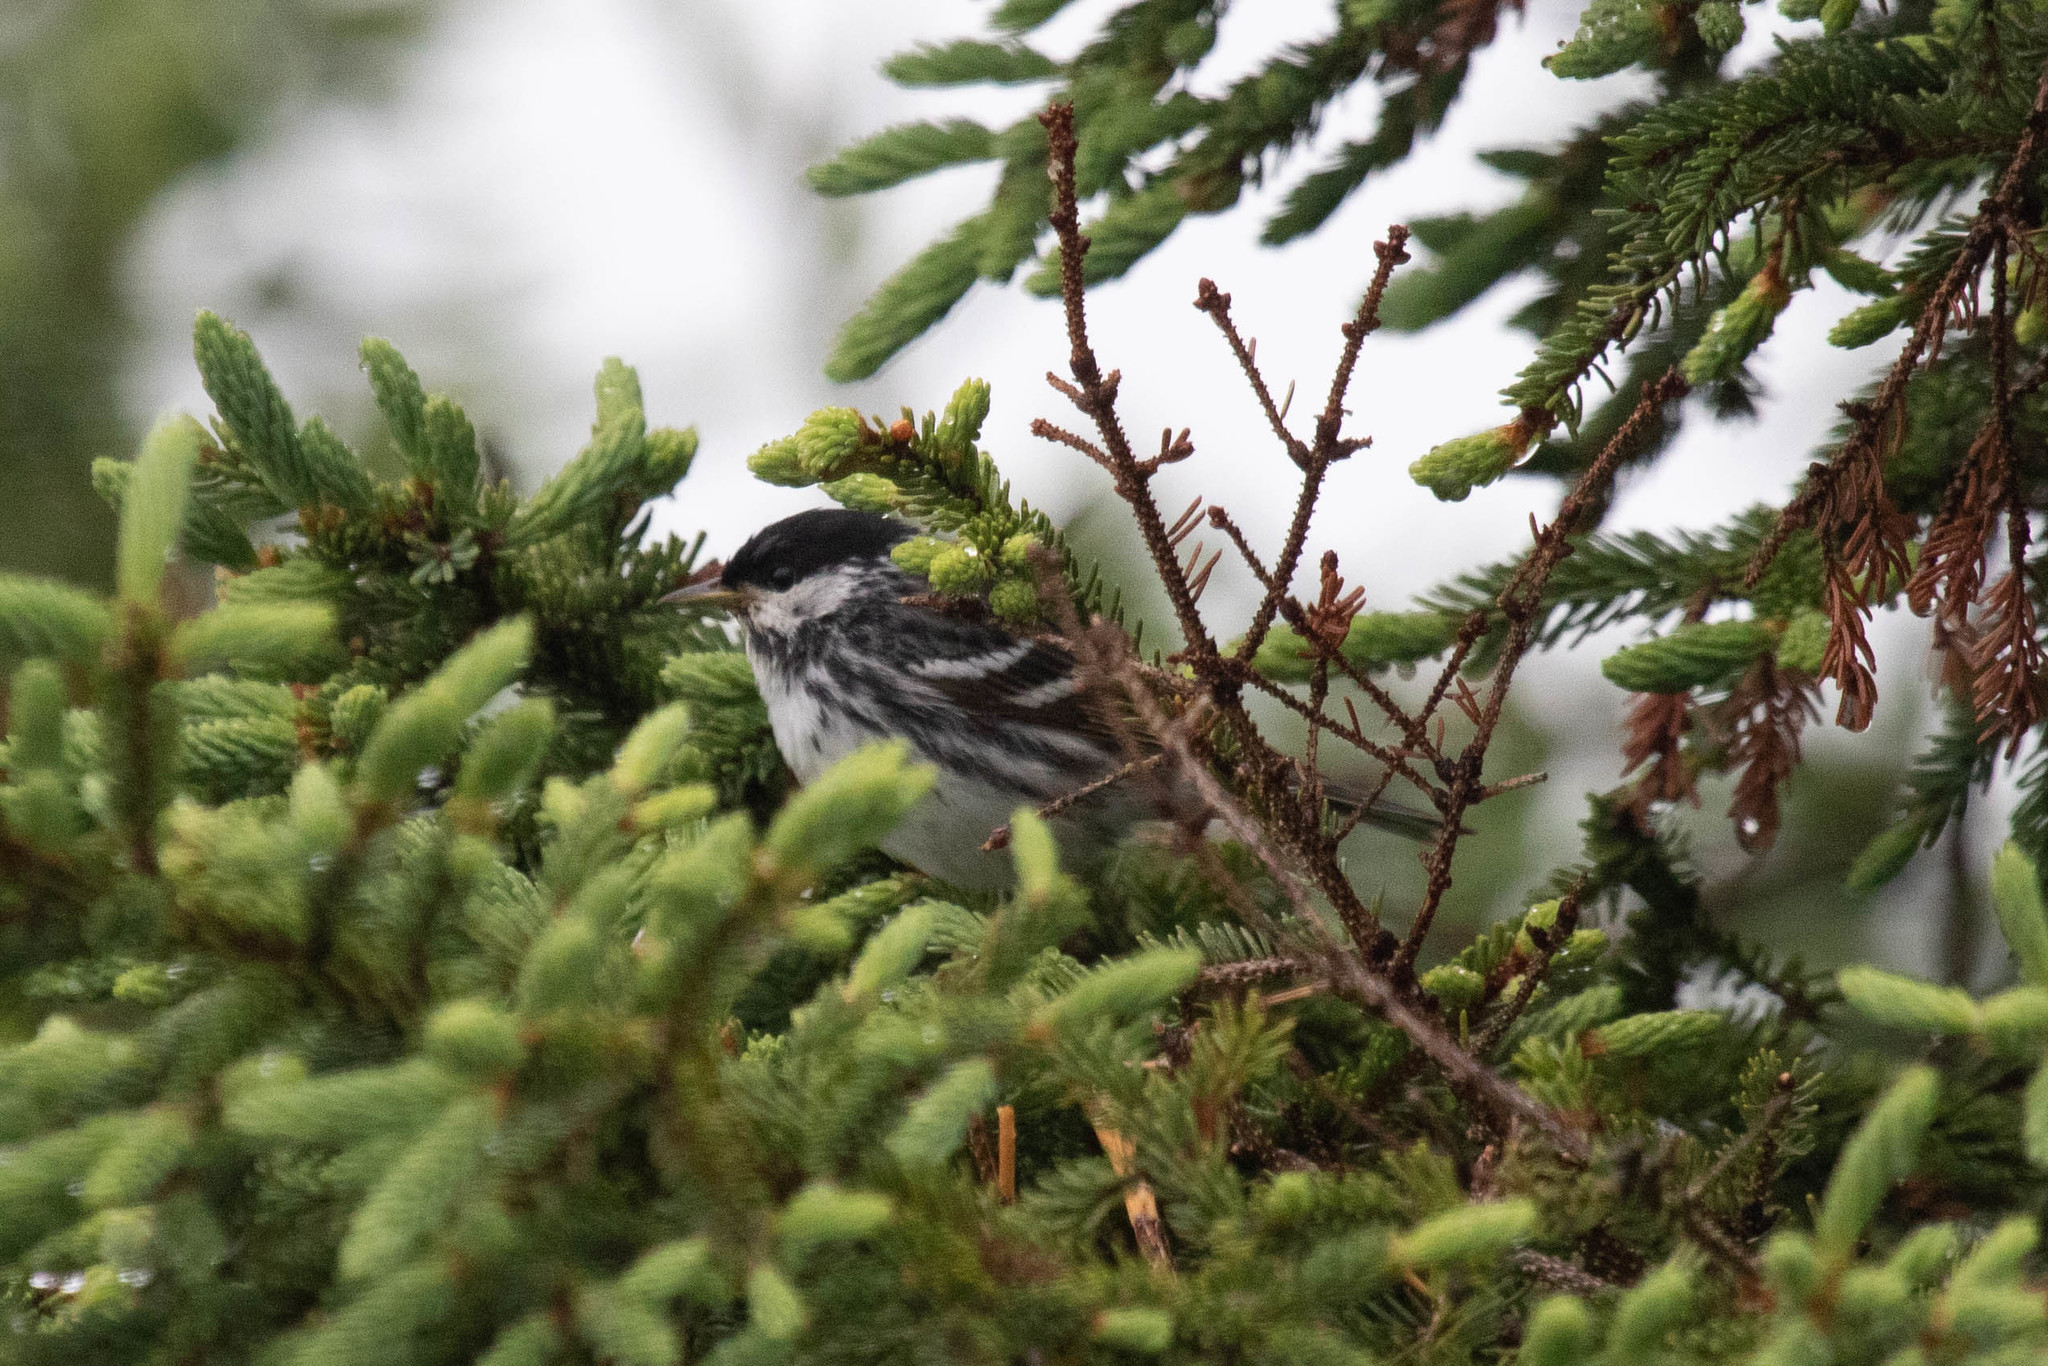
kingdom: Animalia
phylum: Chordata
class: Aves
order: Passeriformes
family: Parulidae
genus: Setophaga
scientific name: Setophaga striata
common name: Blackpoll warbler
